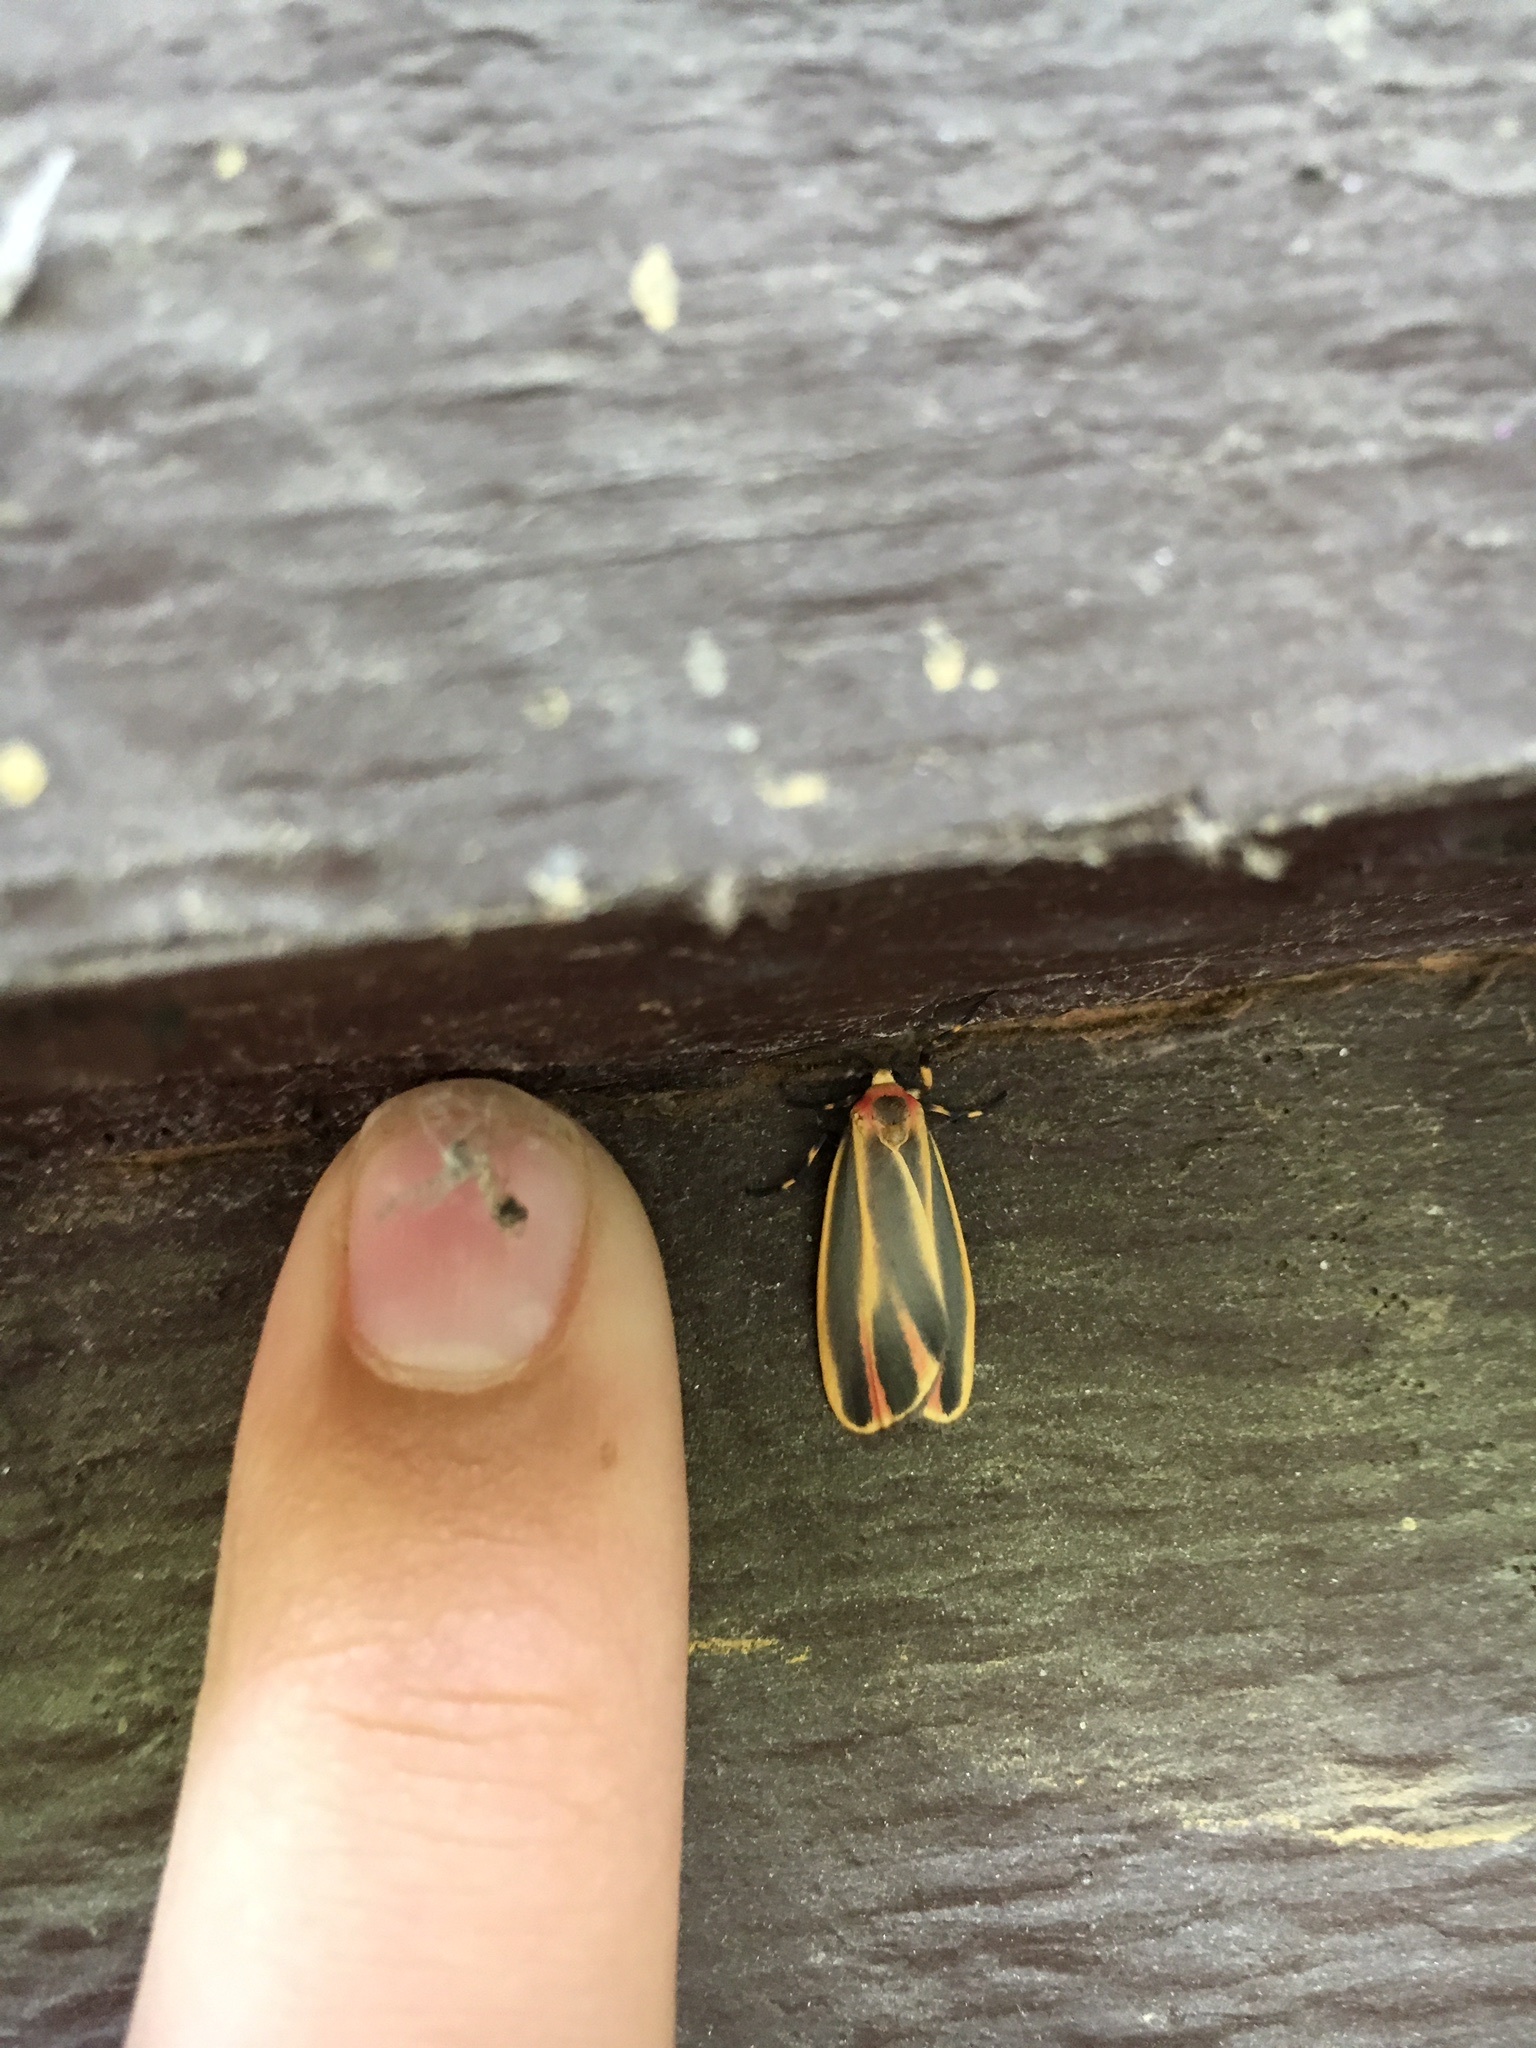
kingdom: Animalia
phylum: Arthropoda
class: Insecta
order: Lepidoptera
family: Erebidae
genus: Hypoprepia
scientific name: Hypoprepia fucosa
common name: Painted lichen moth
